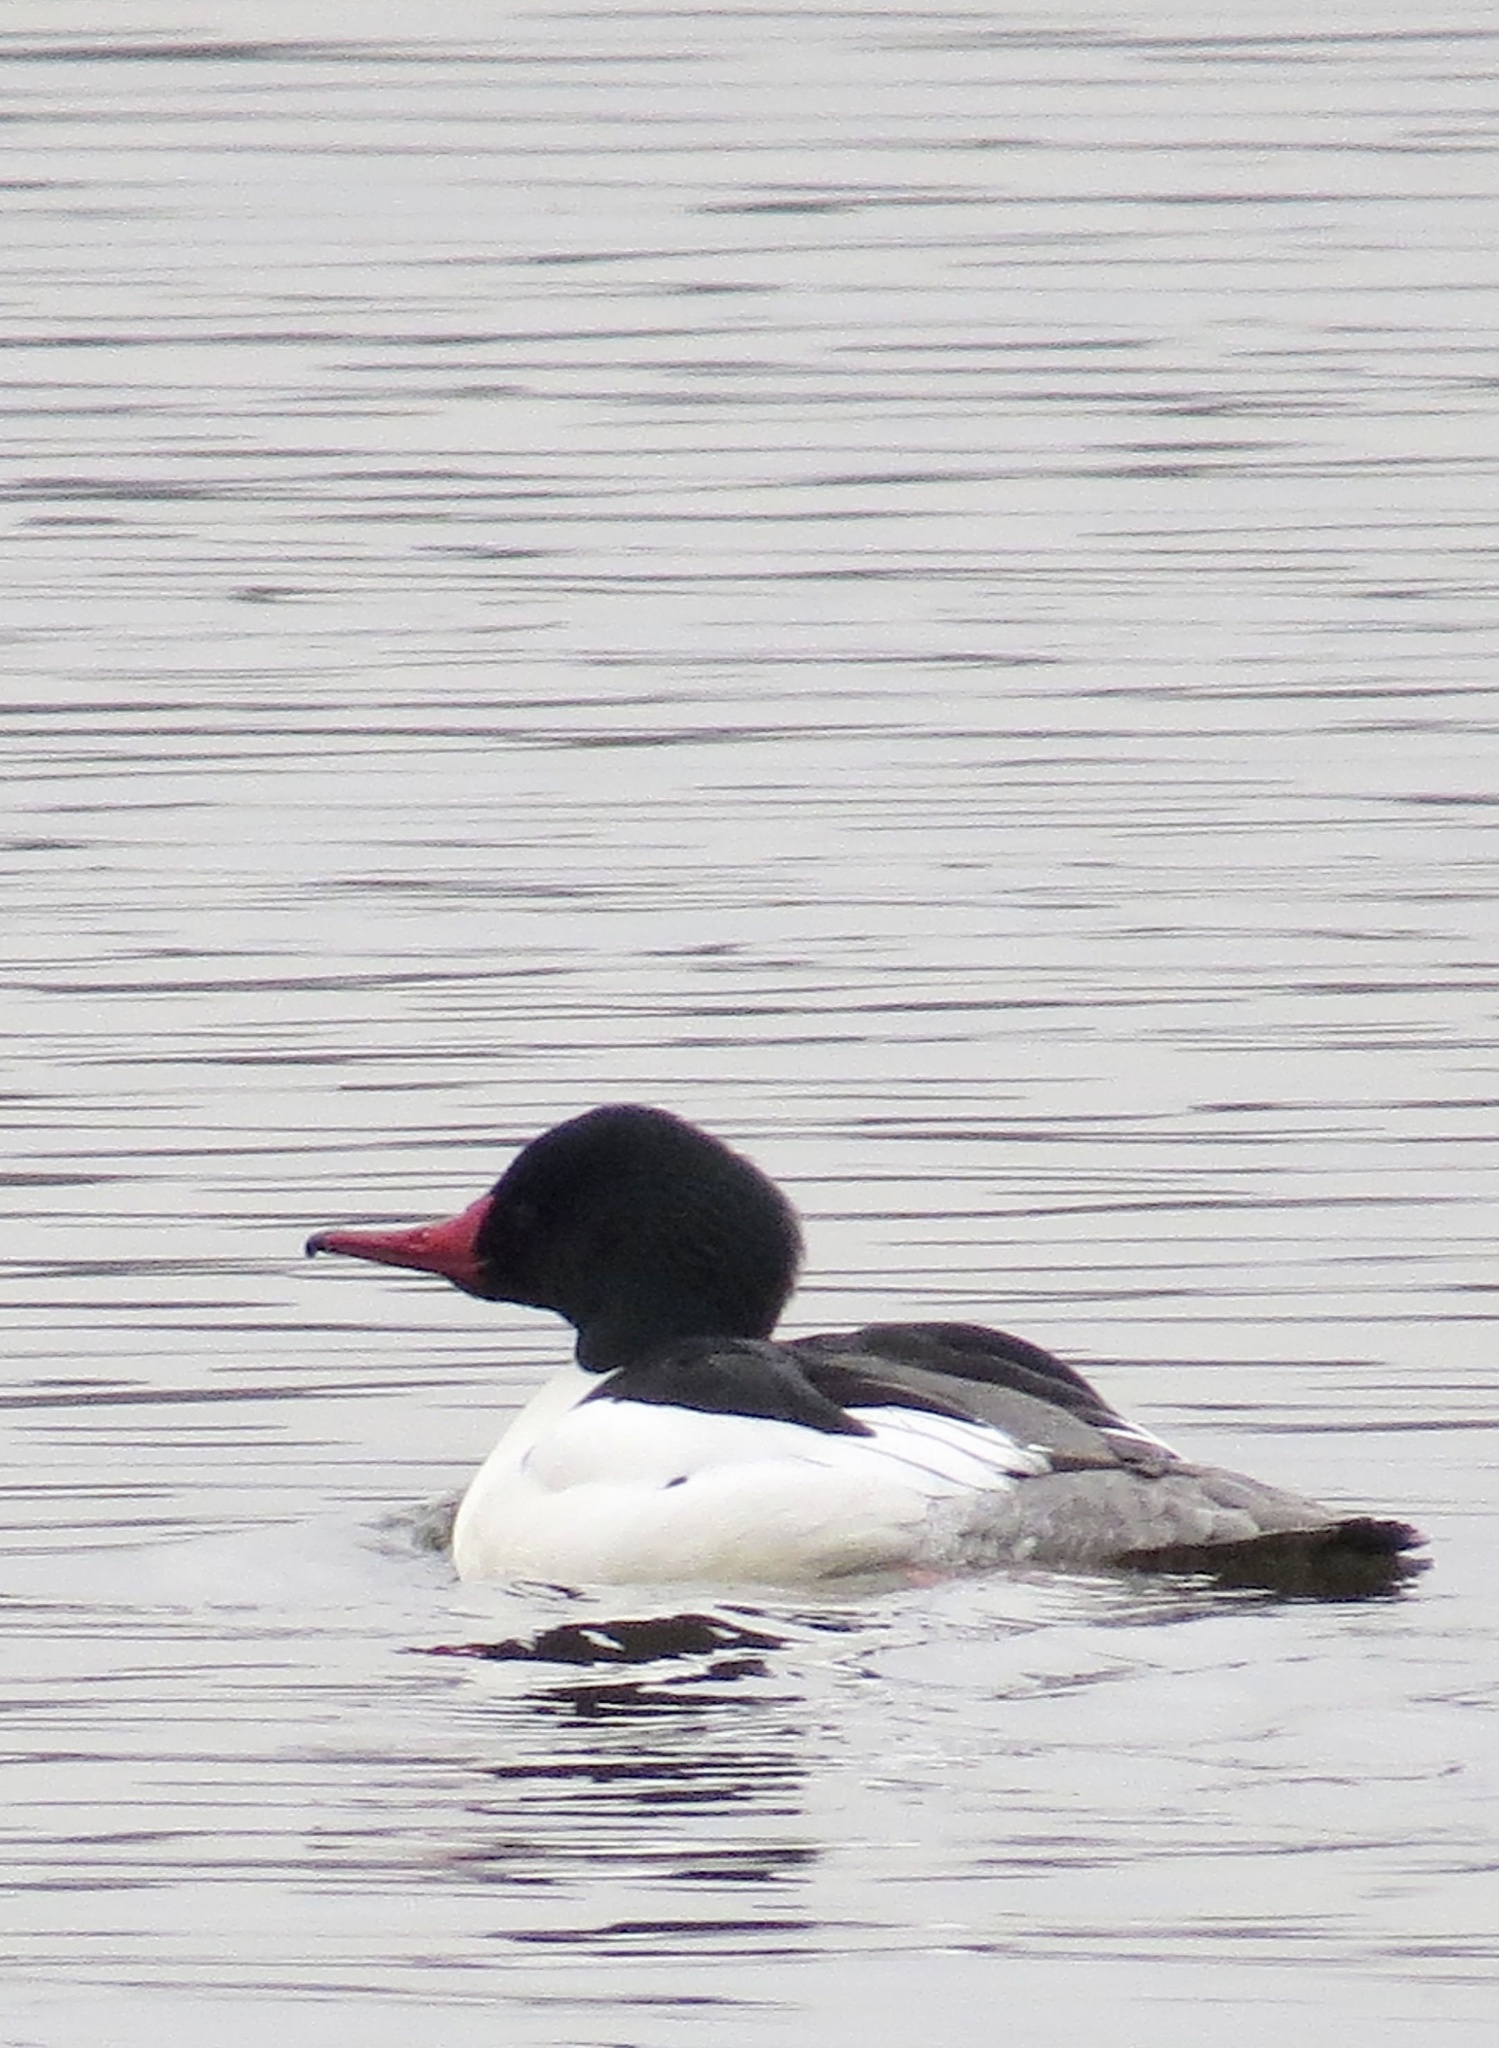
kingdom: Animalia
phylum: Chordata
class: Aves
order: Anseriformes
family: Anatidae
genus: Mergus
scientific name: Mergus merganser
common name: Common merganser
